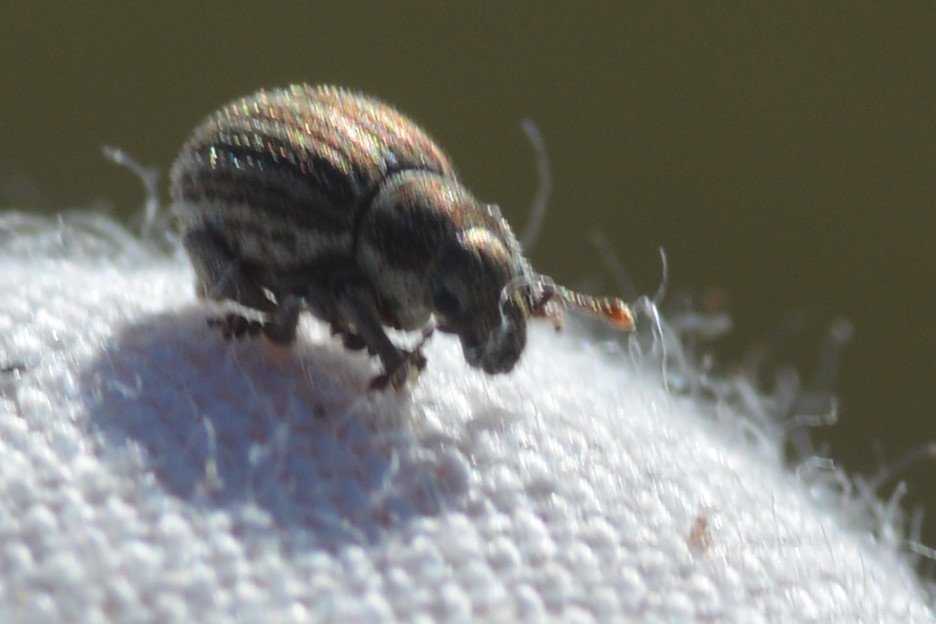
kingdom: Animalia
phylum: Arthropoda
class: Insecta
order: Coleoptera
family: Curculionidae
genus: Philopedon
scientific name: Philopedon plagiatum
